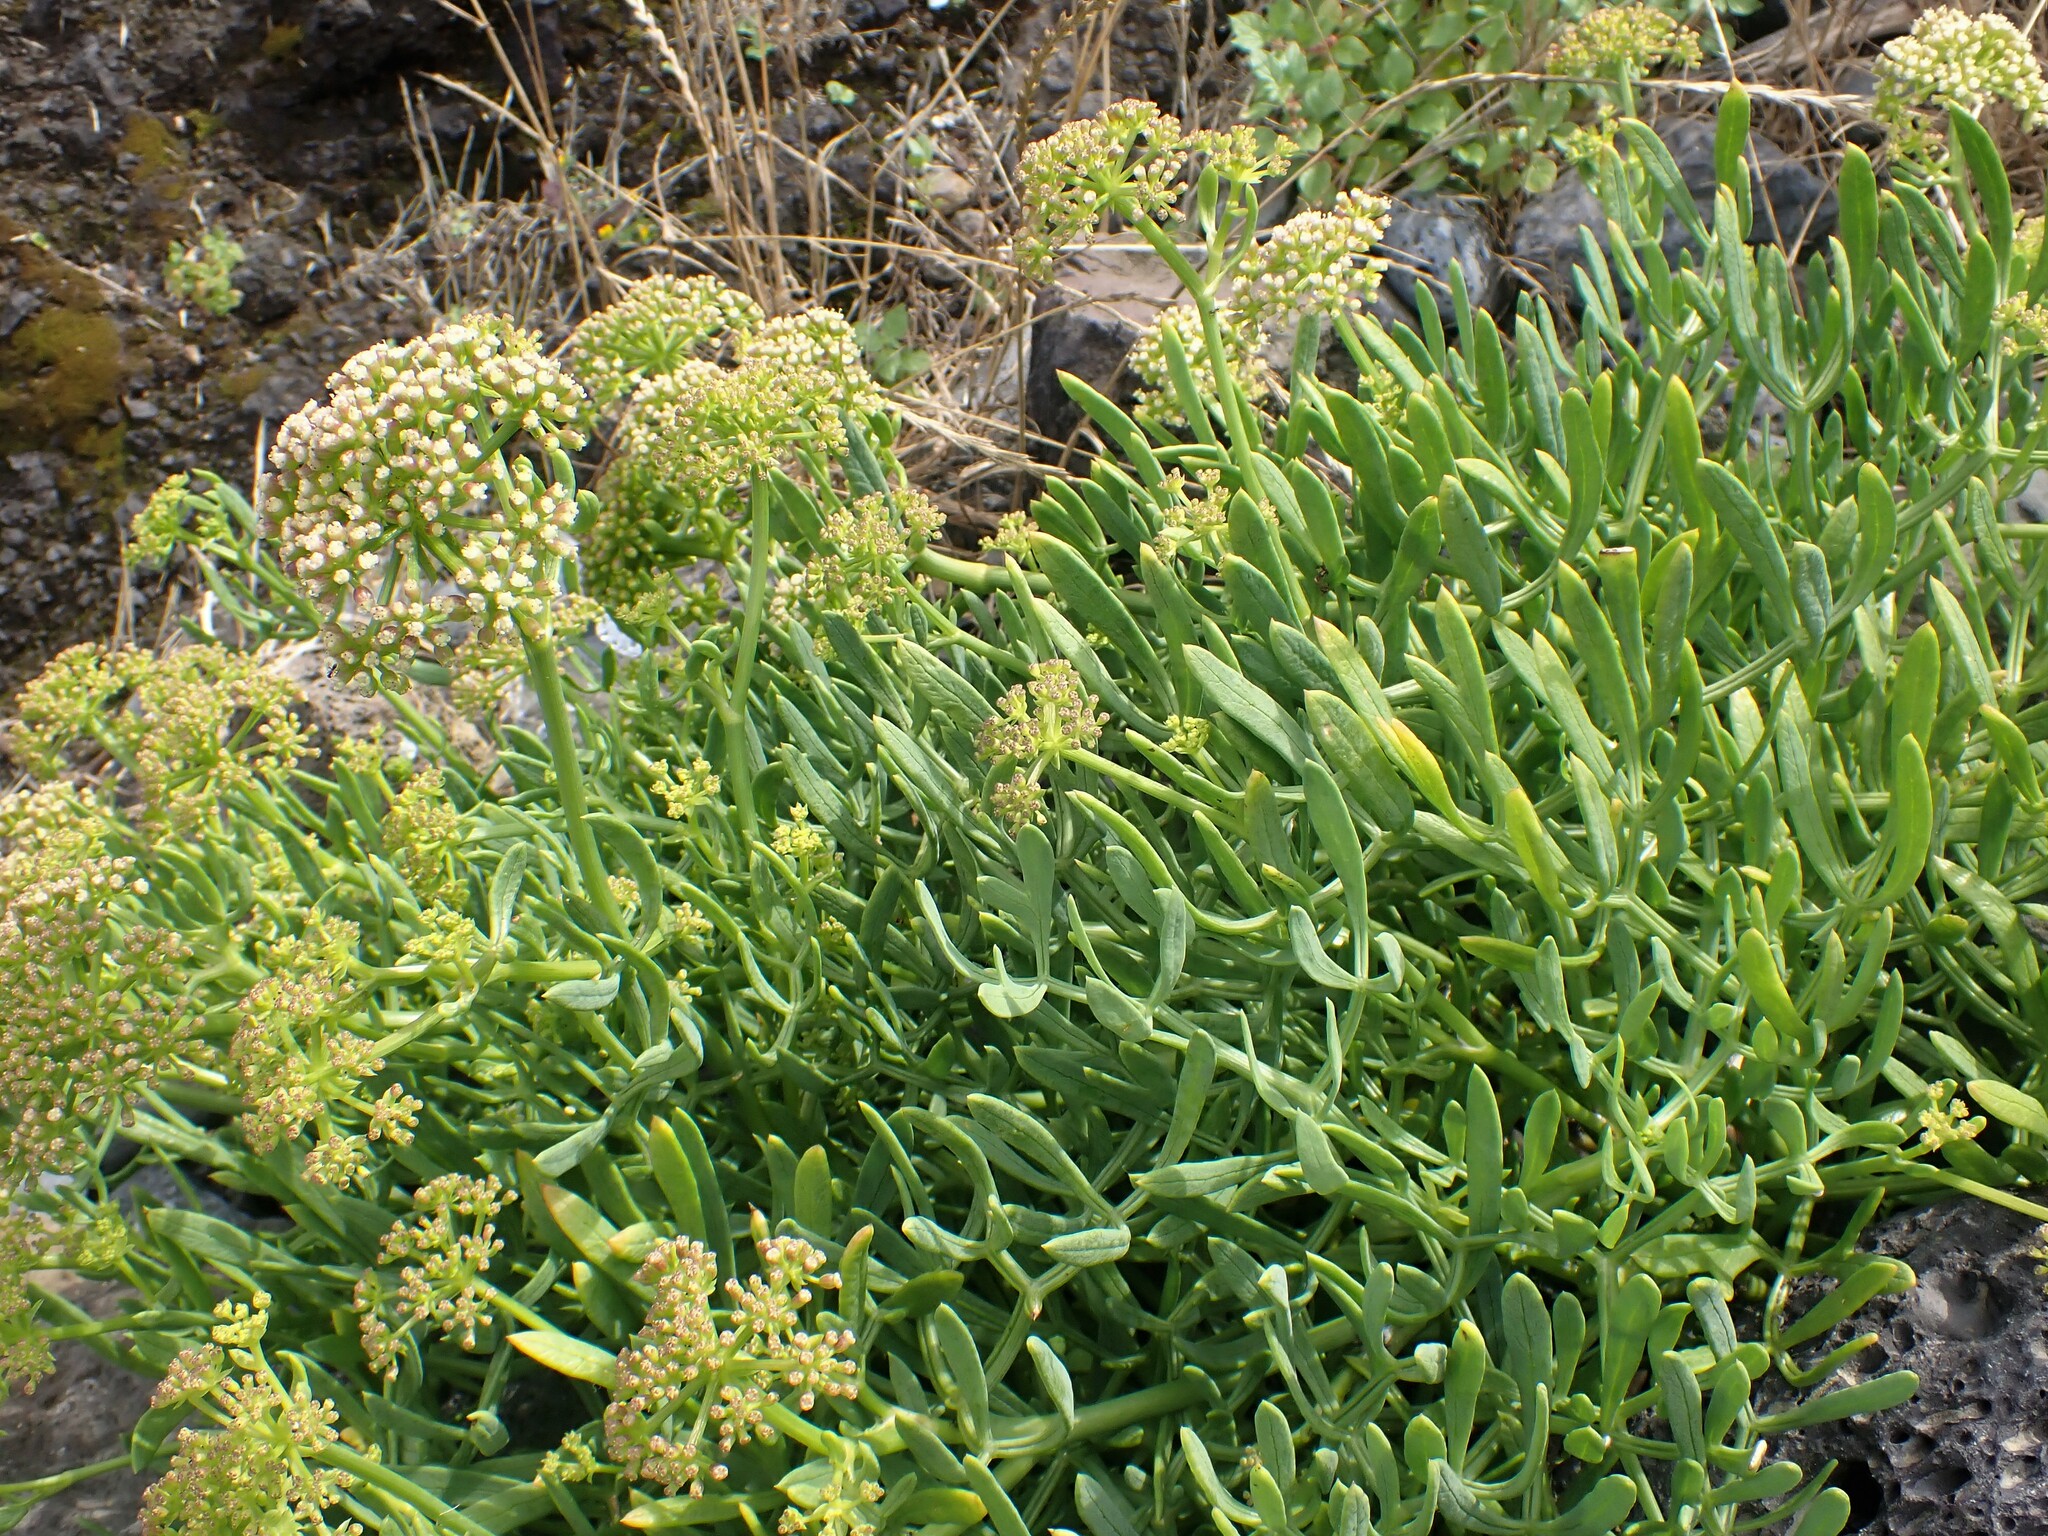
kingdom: Plantae
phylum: Tracheophyta
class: Magnoliopsida
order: Apiales
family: Apiaceae
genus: Crithmum
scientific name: Crithmum maritimum
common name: Rock samphire
